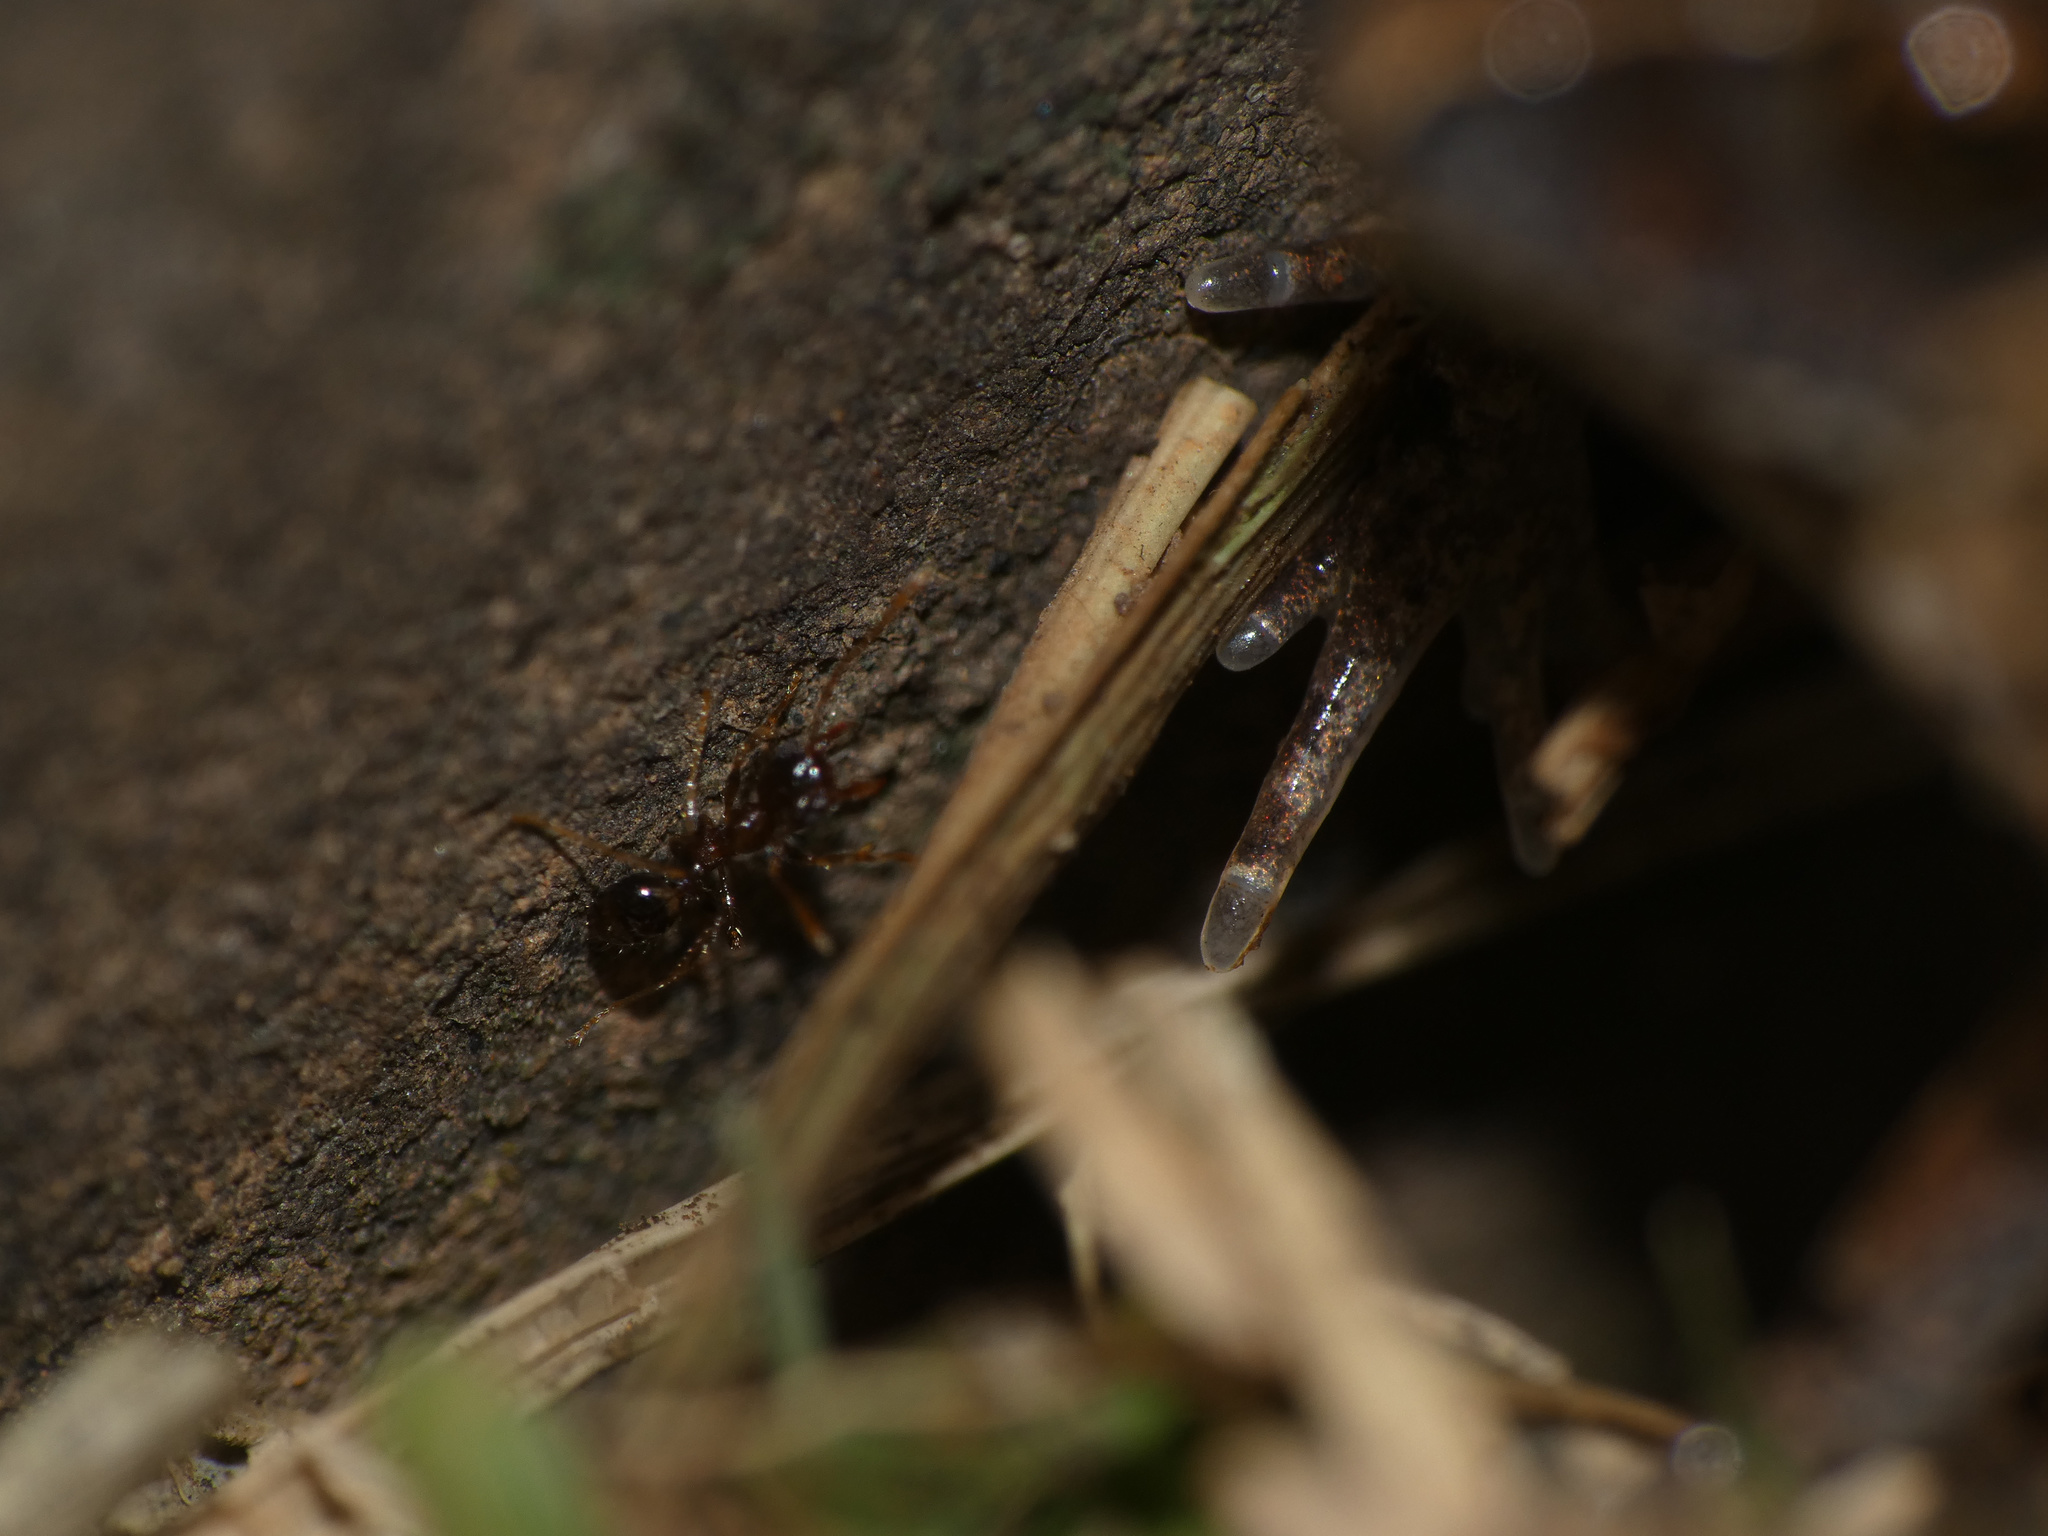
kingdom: Animalia
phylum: Chordata
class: Amphibia
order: Anura
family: Arthroleptidae
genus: Arthroleptis
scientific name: Arthroleptis stenodactylus
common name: Dune squeaker
